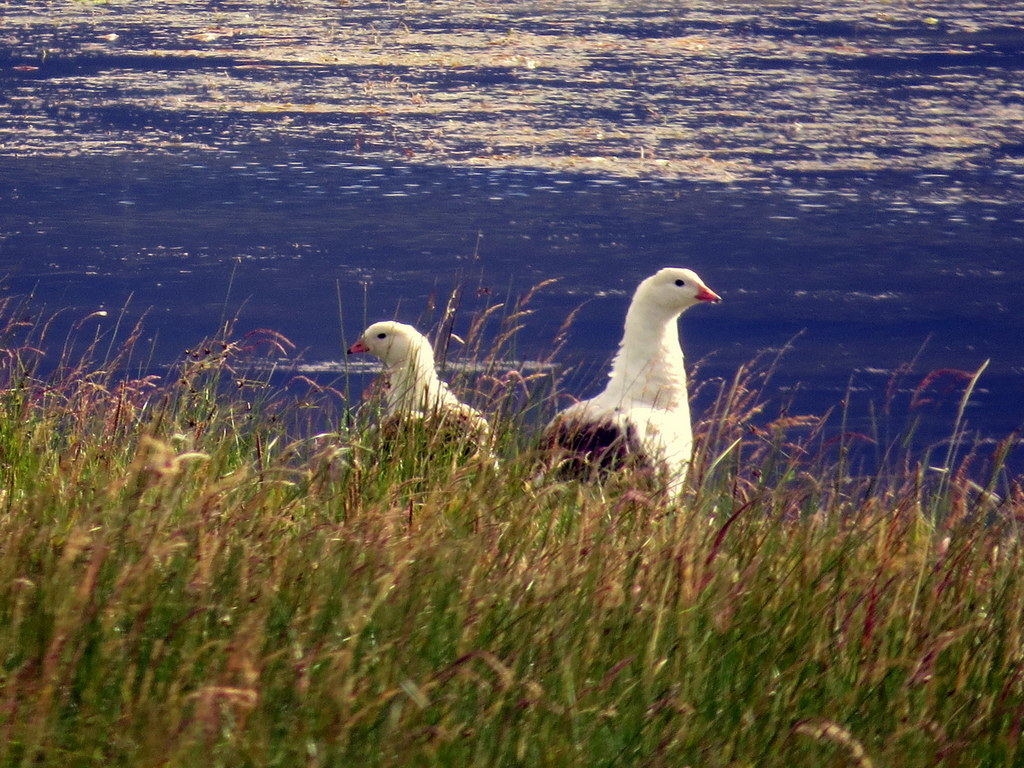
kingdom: Animalia
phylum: Chordata
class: Aves
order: Anseriformes
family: Anatidae
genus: Chloephaga
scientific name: Chloephaga melanoptera
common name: Andean goose
